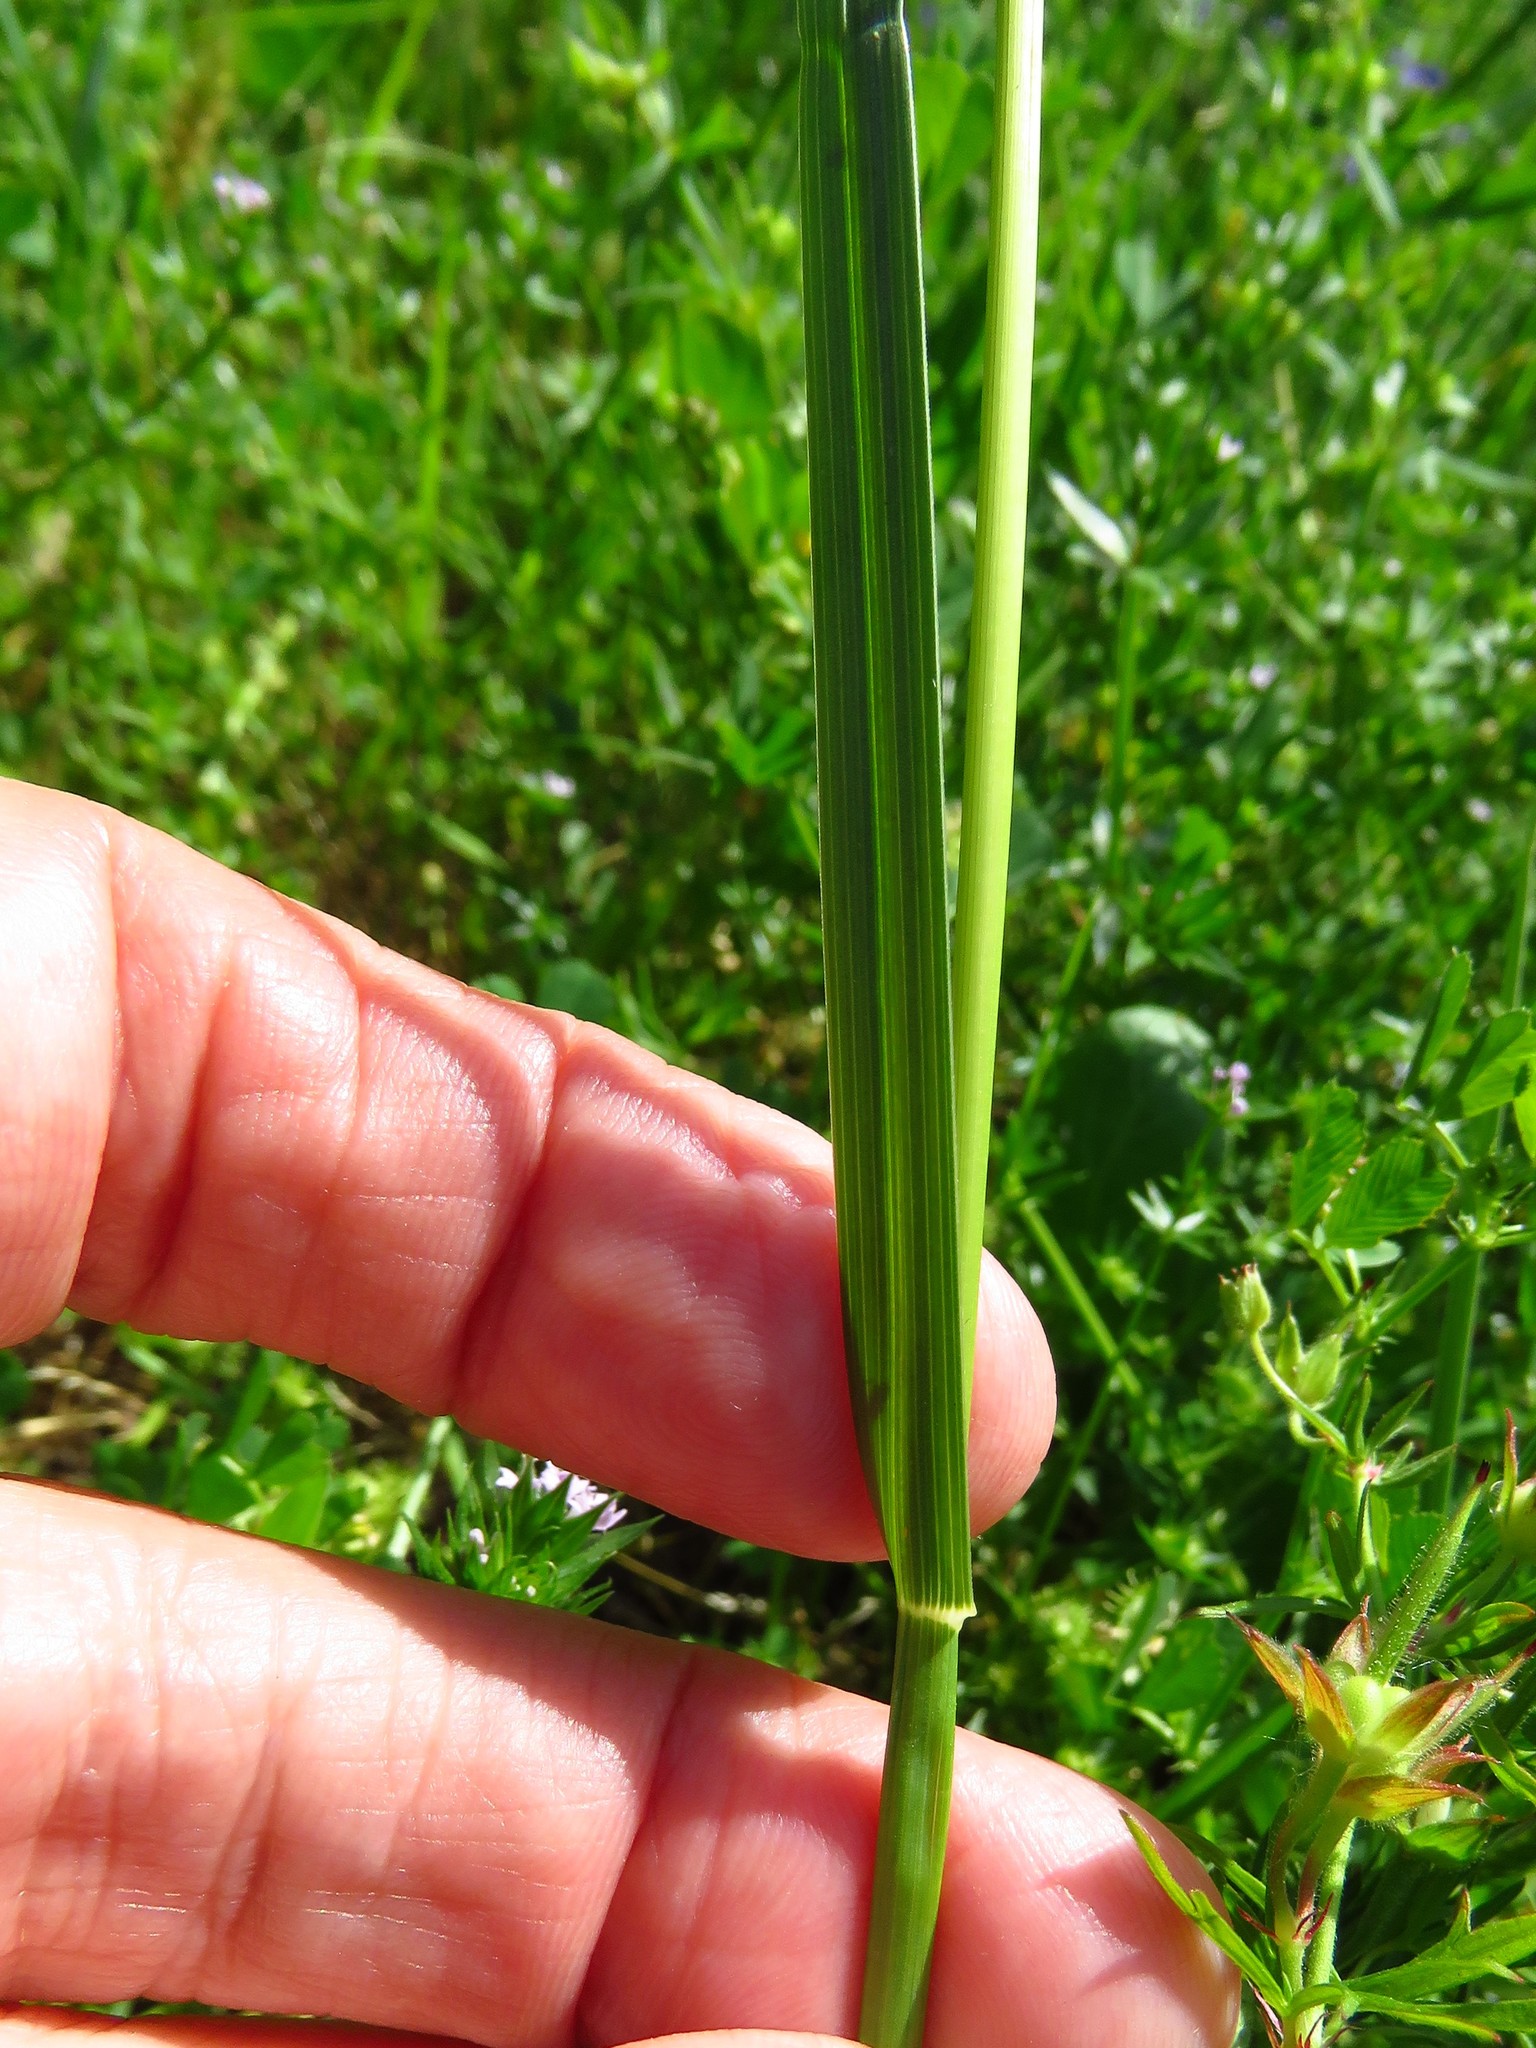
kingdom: Plantae
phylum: Tracheophyta
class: Liliopsida
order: Poales
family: Poaceae
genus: Poa
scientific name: Poa arachnifera
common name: Texas bluegrass
